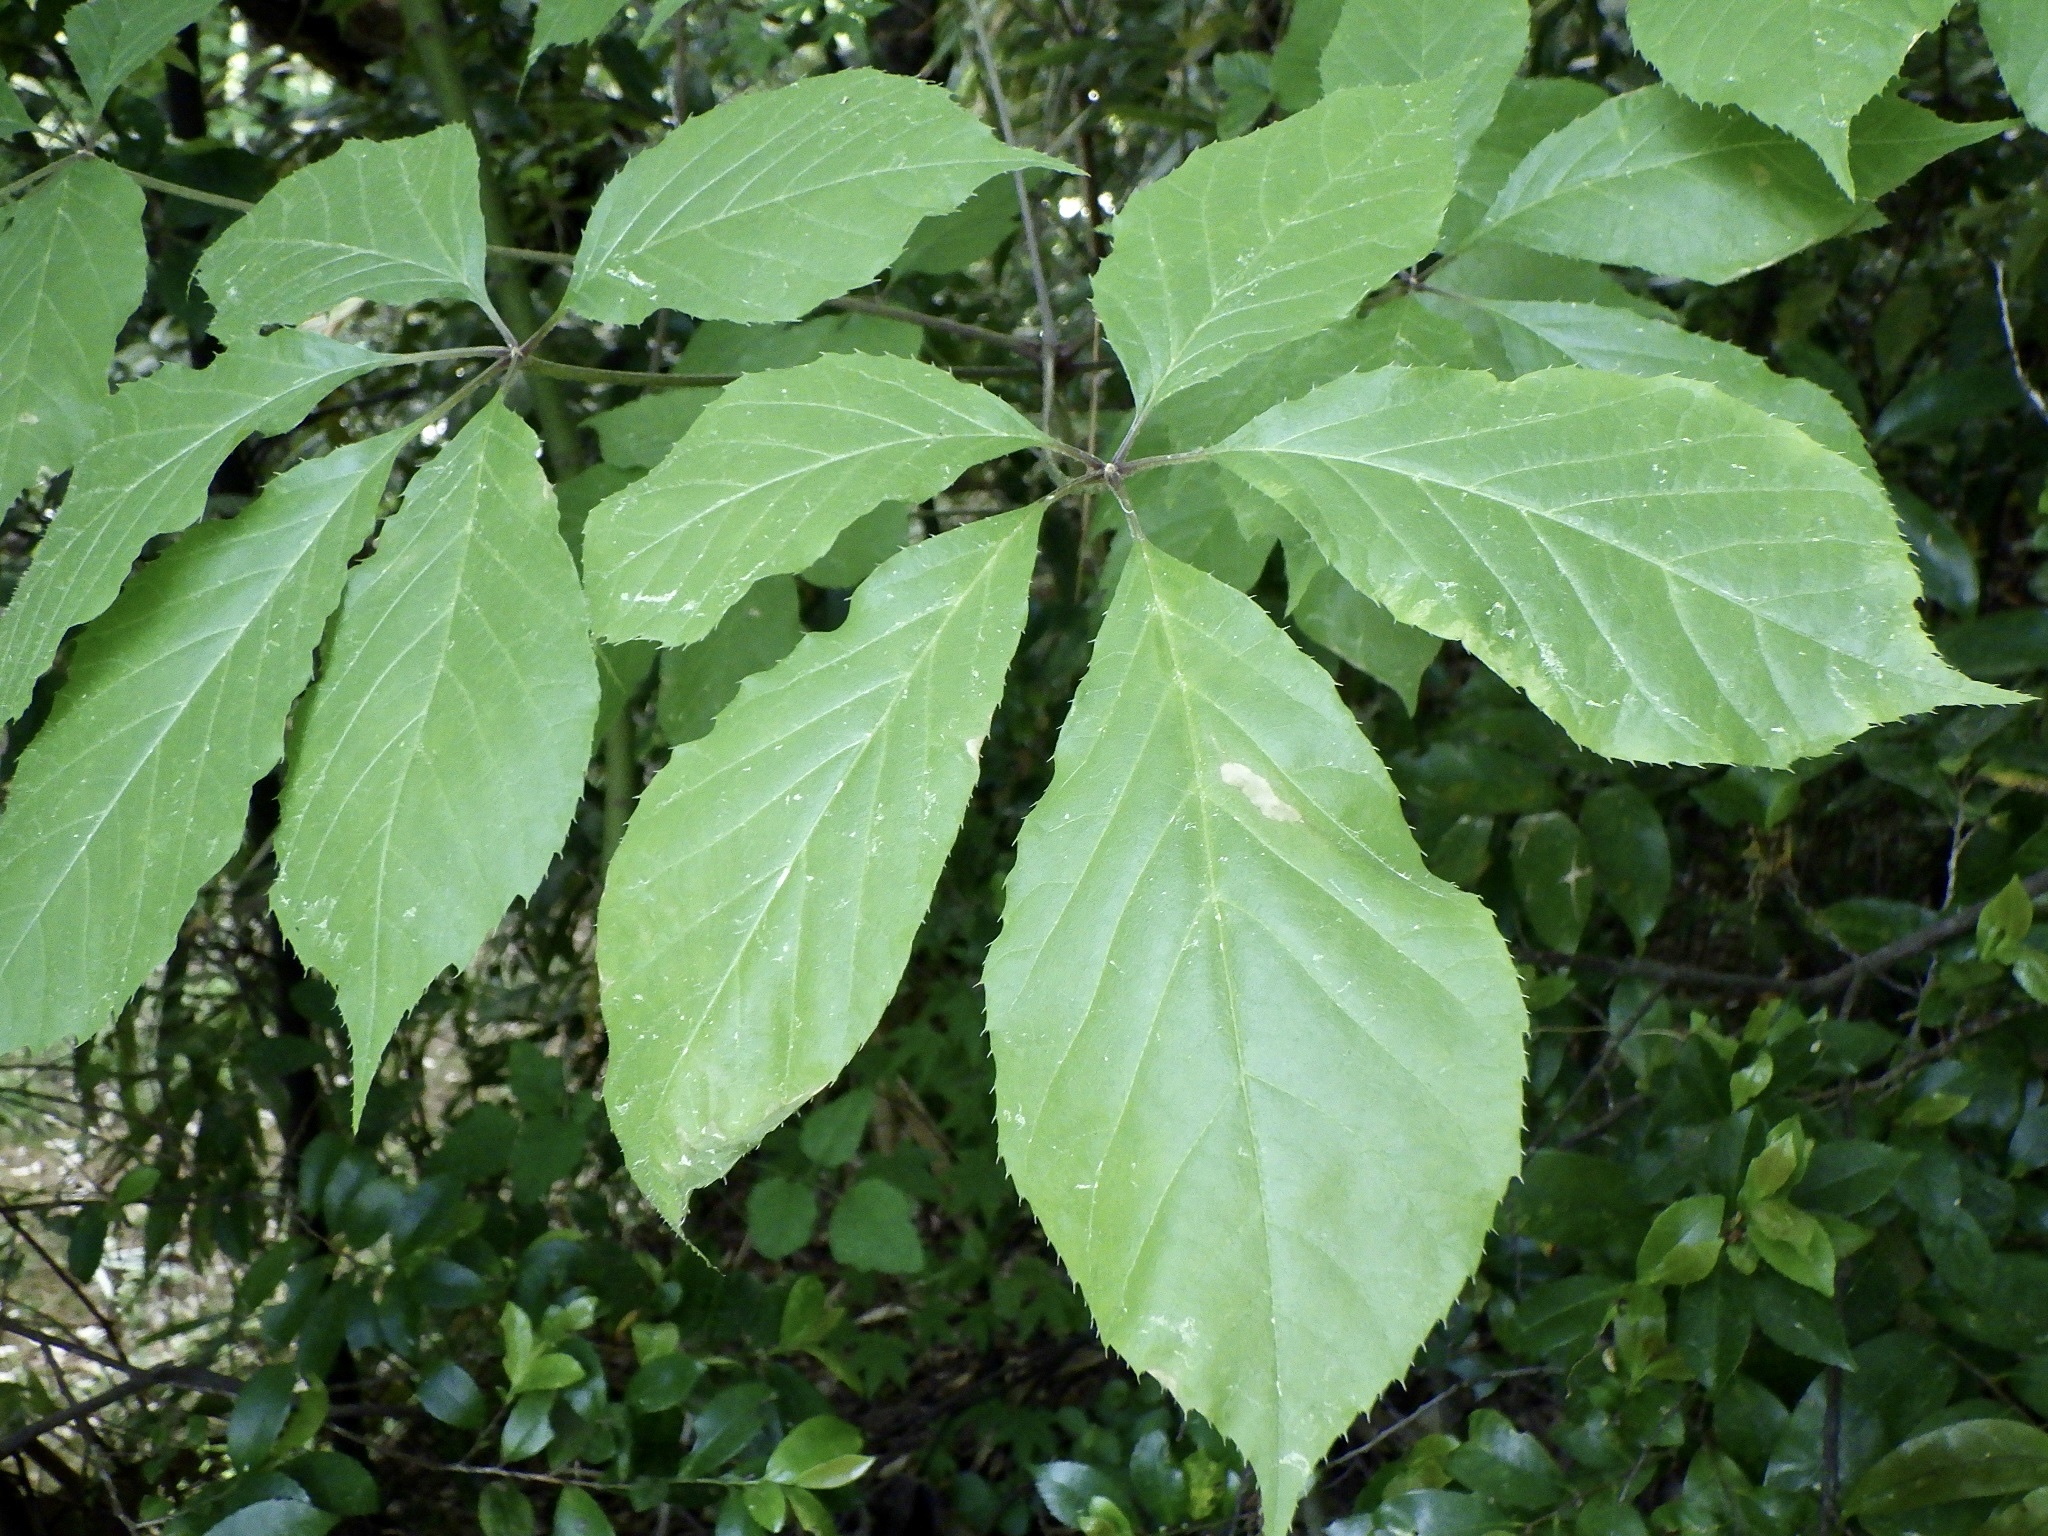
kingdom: Plantae
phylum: Tracheophyta
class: Magnoliopsida
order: Apiales
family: Araliaceae
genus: Chengiopanax
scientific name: Chengiopanax sciadophylloides
